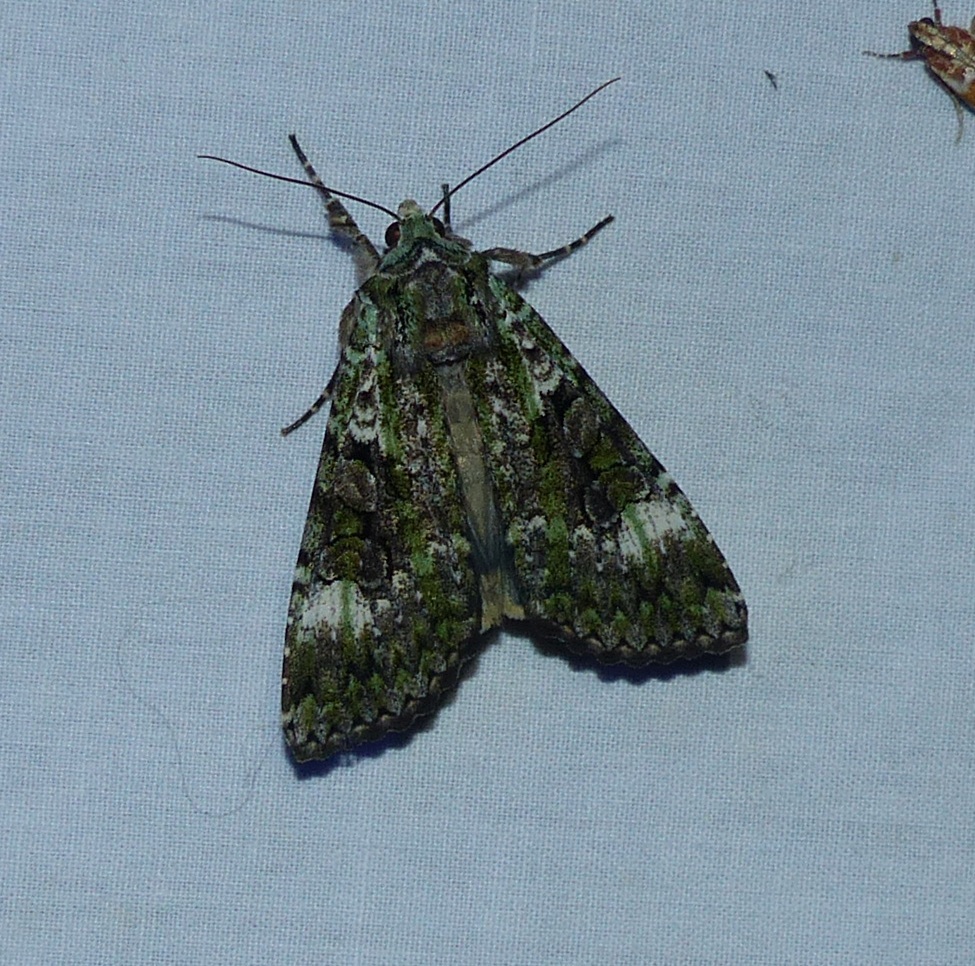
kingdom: Animalia
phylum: Arthropoda
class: Insecta
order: Lepidoptera
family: Noctuidae
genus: Anaplectoides
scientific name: Anaplectoides prasina
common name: Green arches
